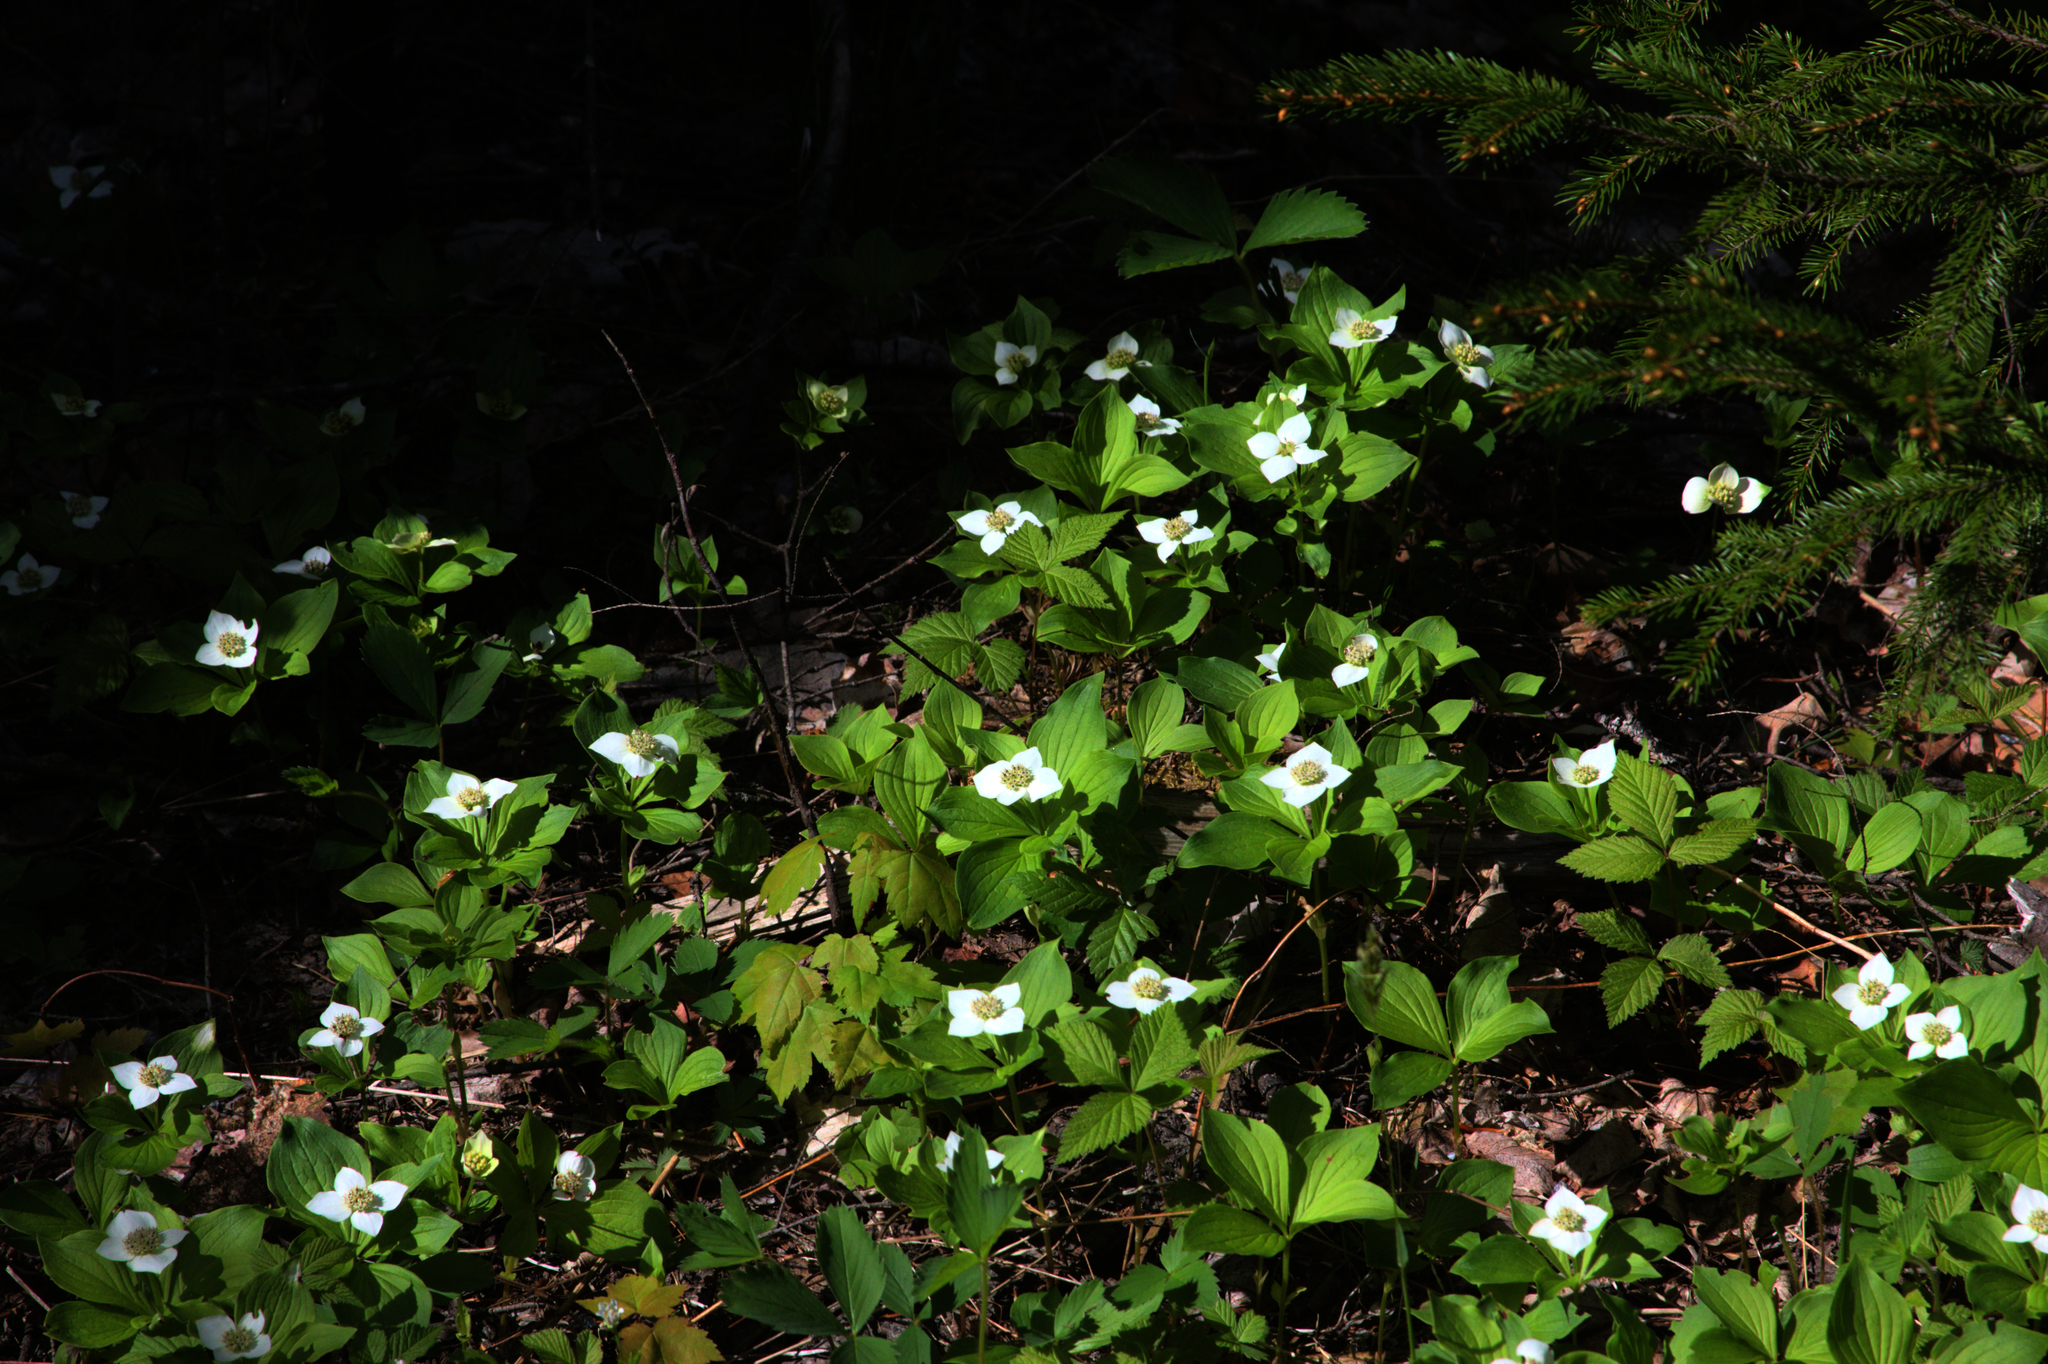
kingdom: Plantae
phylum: Tracheophyta
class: Magnoliopsida
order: Cornales
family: Cornaceae
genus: Cornus
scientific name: Cornus canadensis
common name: Creeping dogwood
